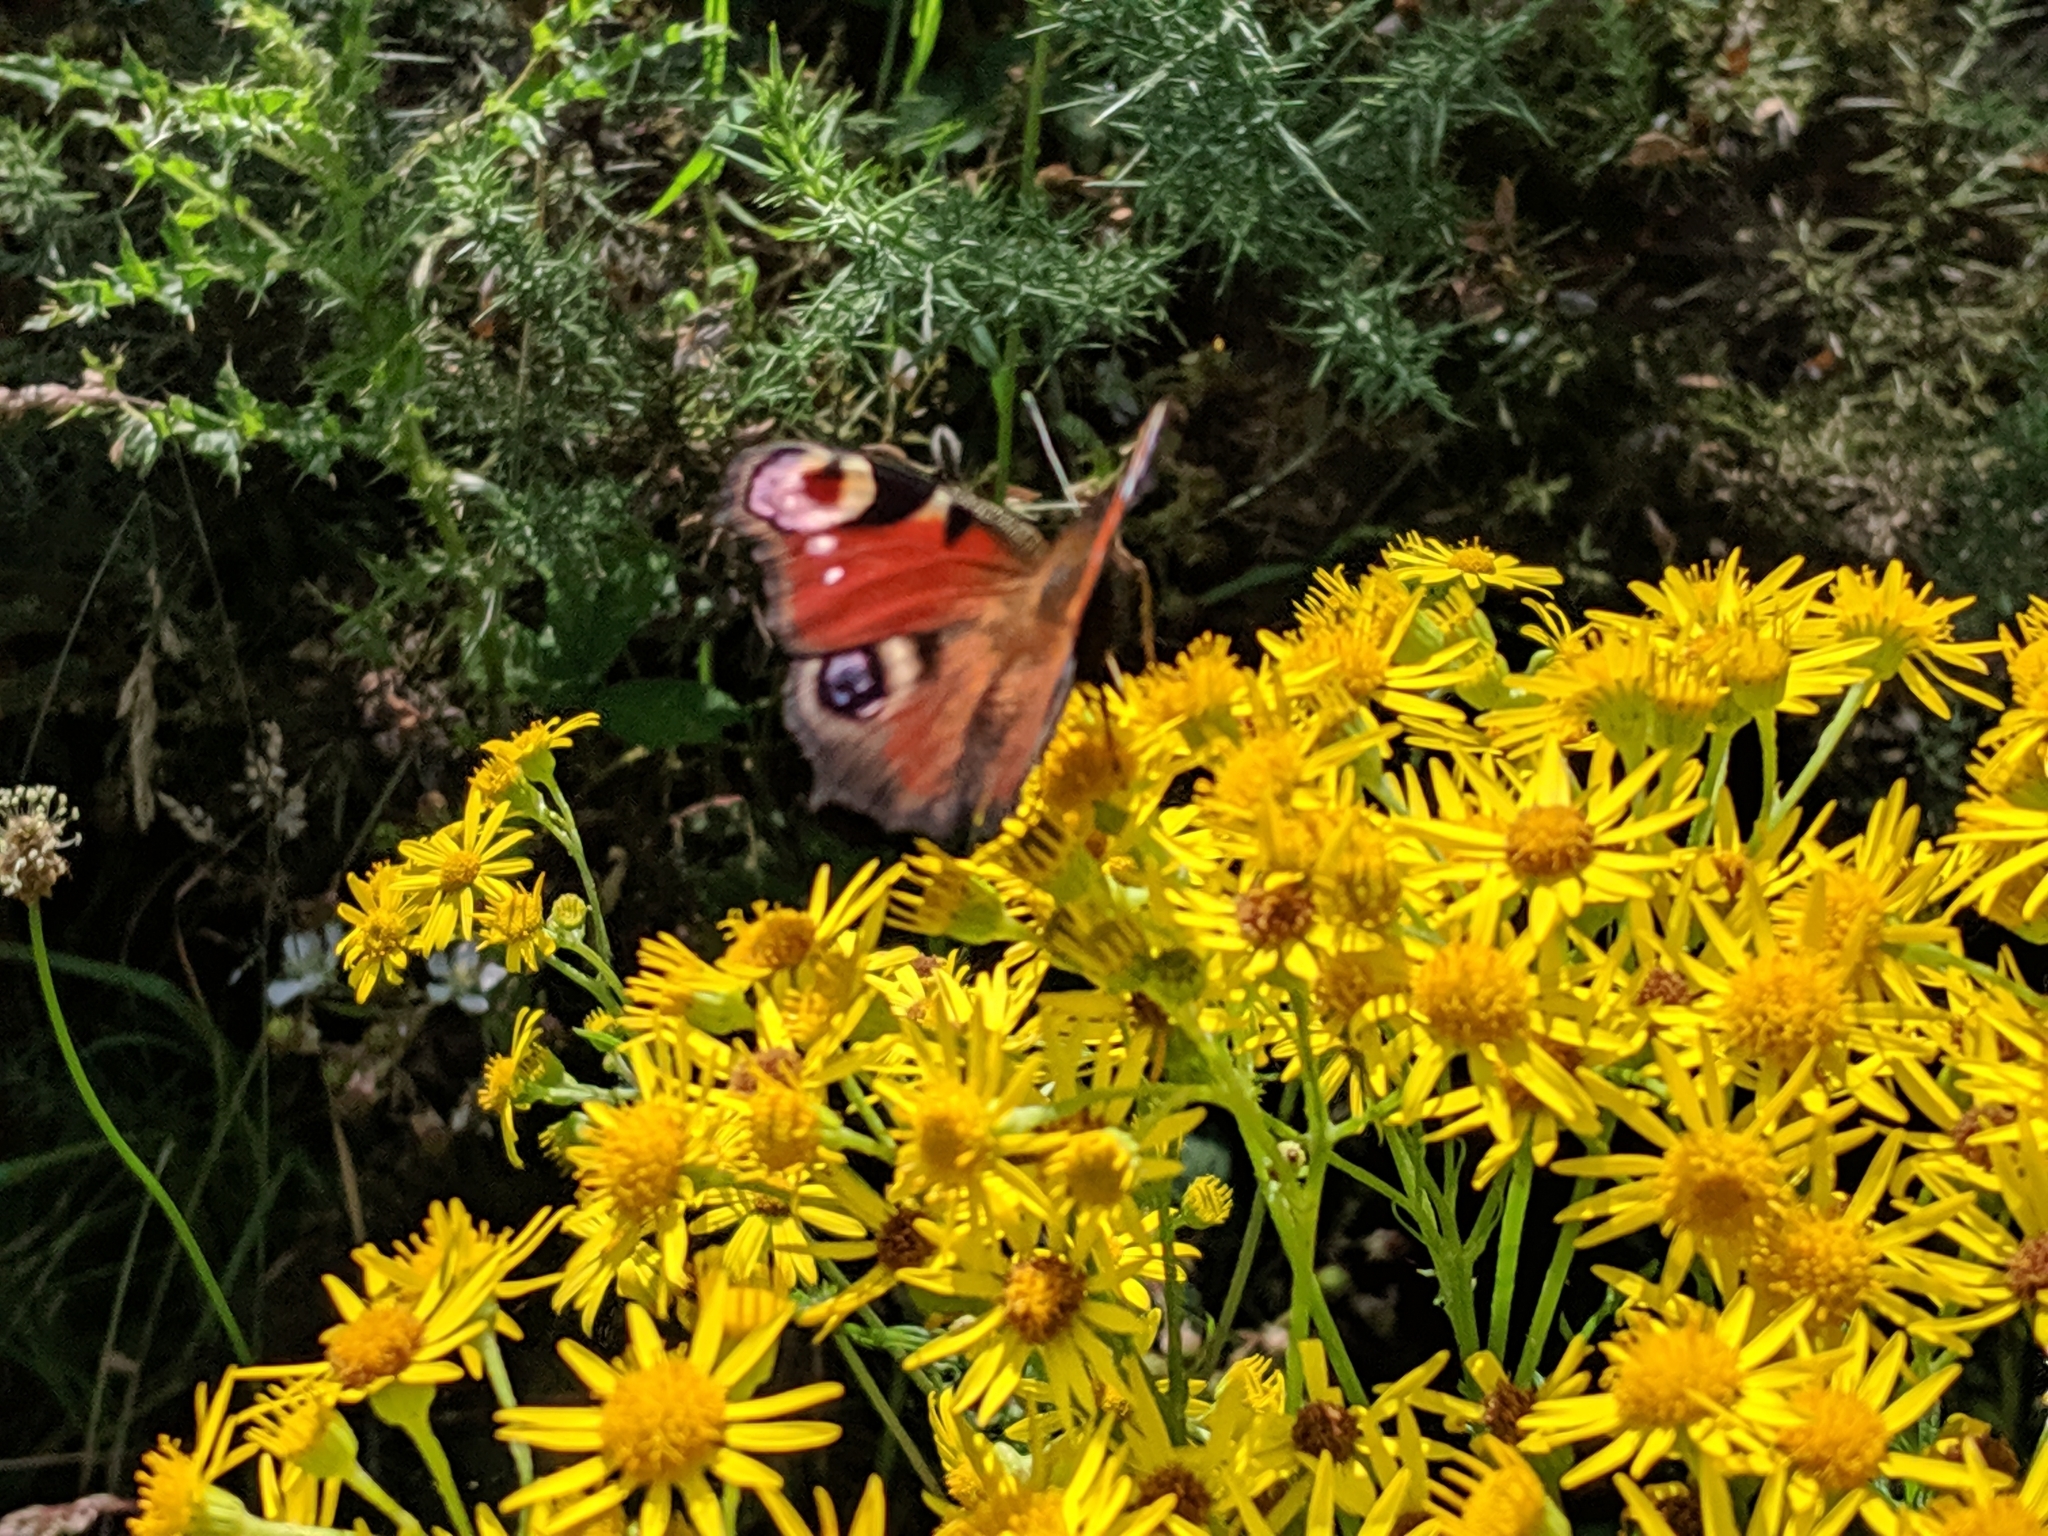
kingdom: Animalia
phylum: Arthropoda
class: Insecta
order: Lepidoptera
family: Nymphalidae
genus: Aglais
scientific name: Aglais io
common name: Peacock
